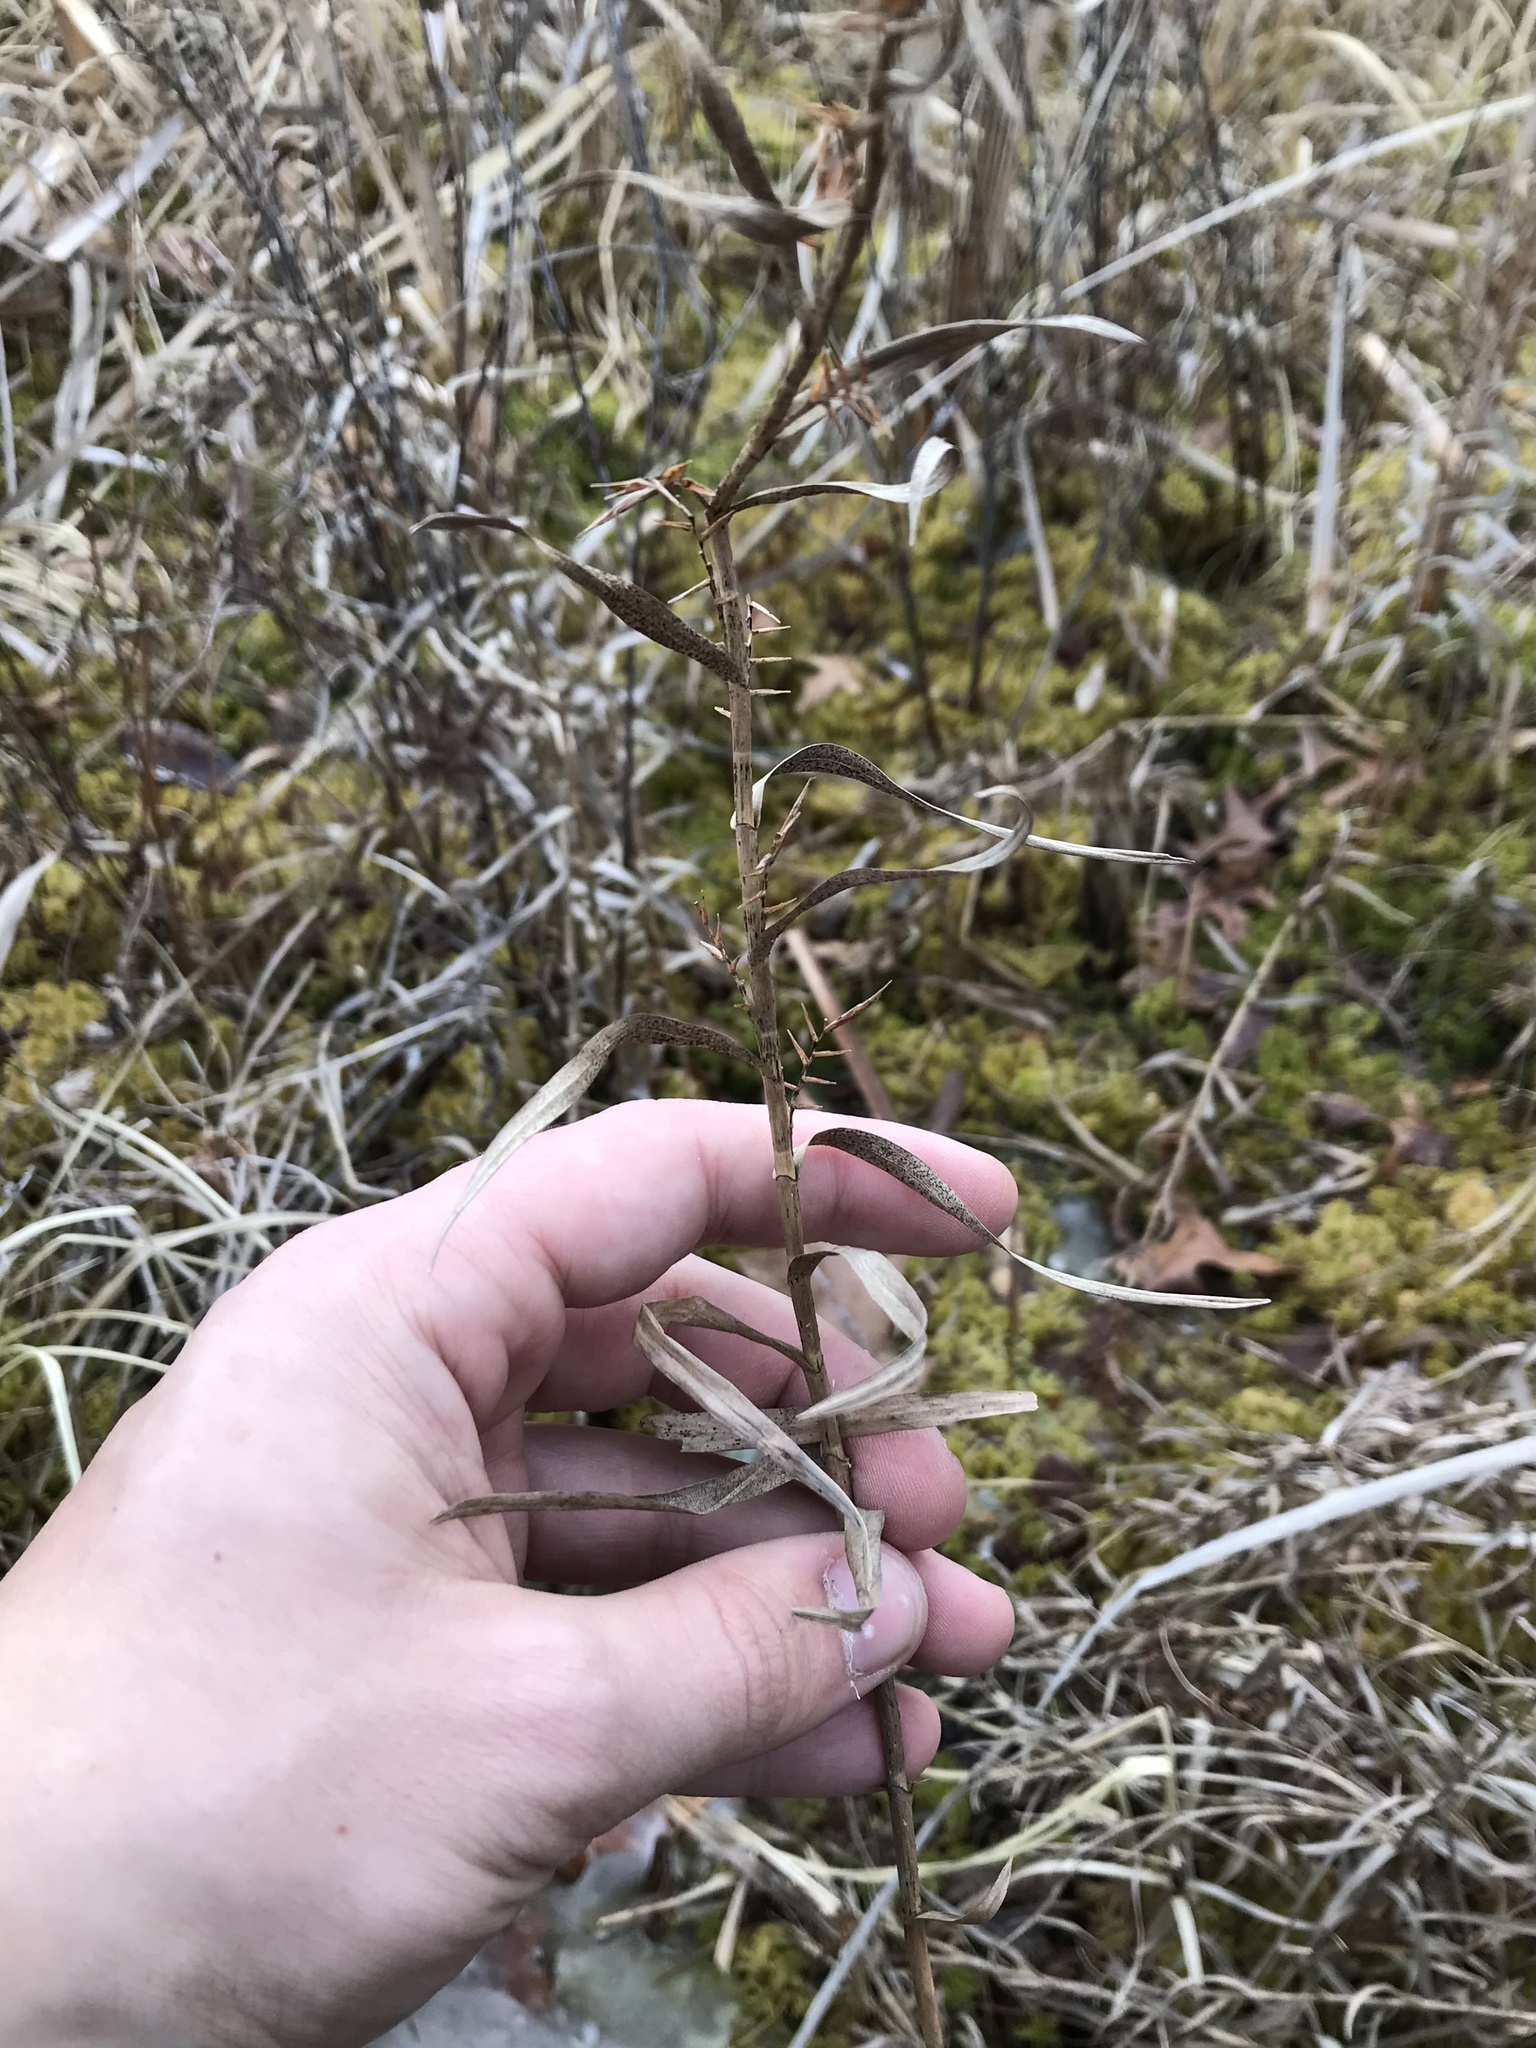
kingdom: Plantae
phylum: Tracheophyta
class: Liliopsida
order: Poales
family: Cyperaceae
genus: Dulichium
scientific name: Dulichium arundinaceum
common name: Three-way sedge
